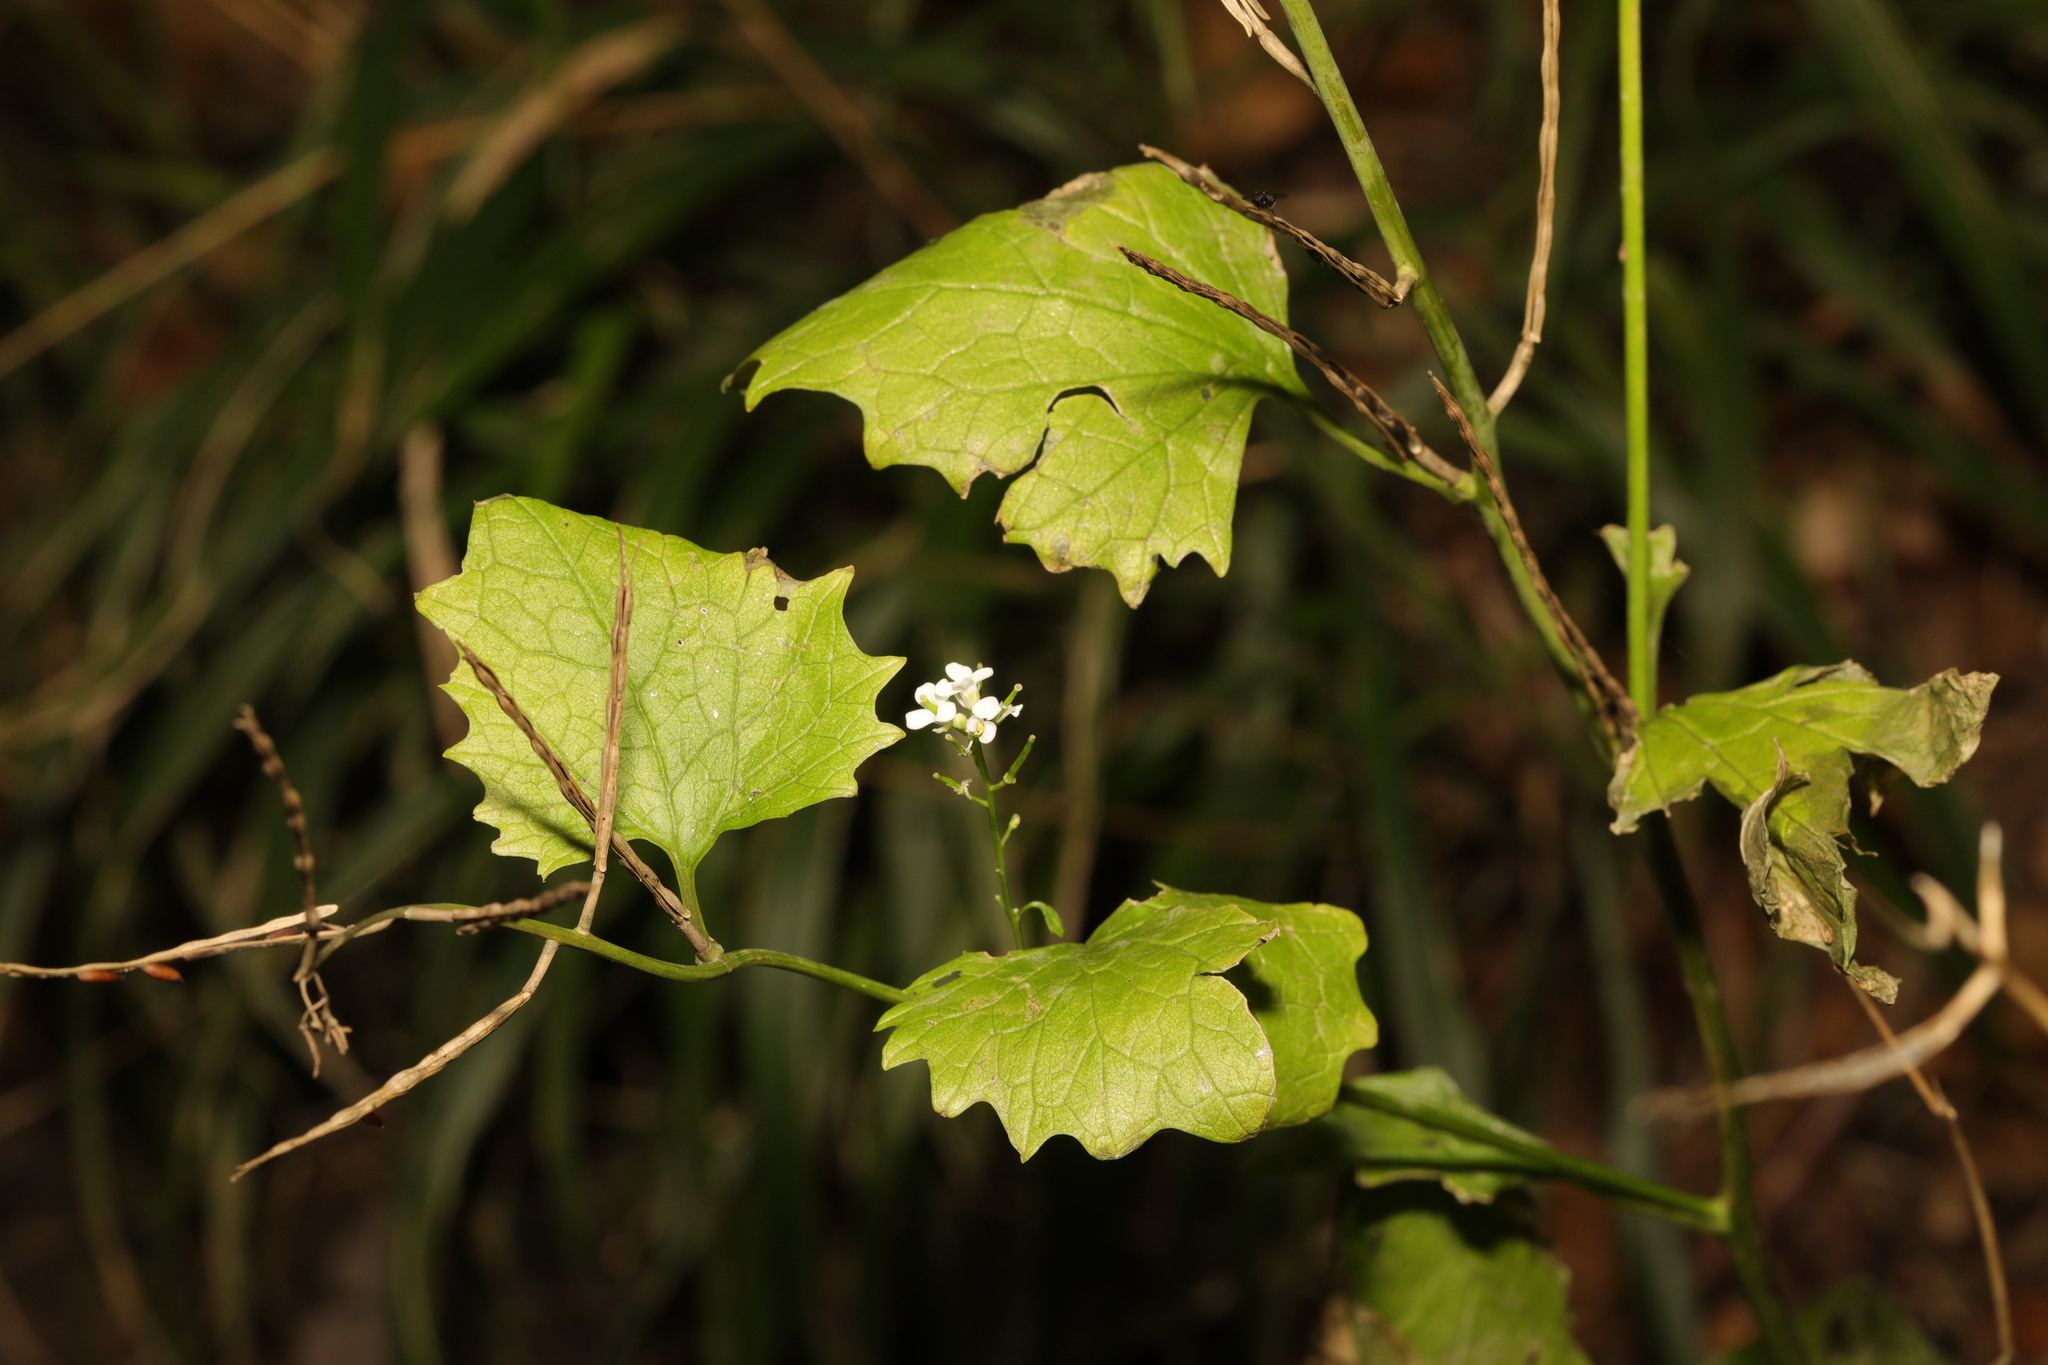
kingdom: Plantae
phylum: Tracheophyta
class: Magnoliopsida
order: Brassicales
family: Brassicaceae
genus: Alliaria
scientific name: Alliaria petiolata
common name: Garlic mustard
